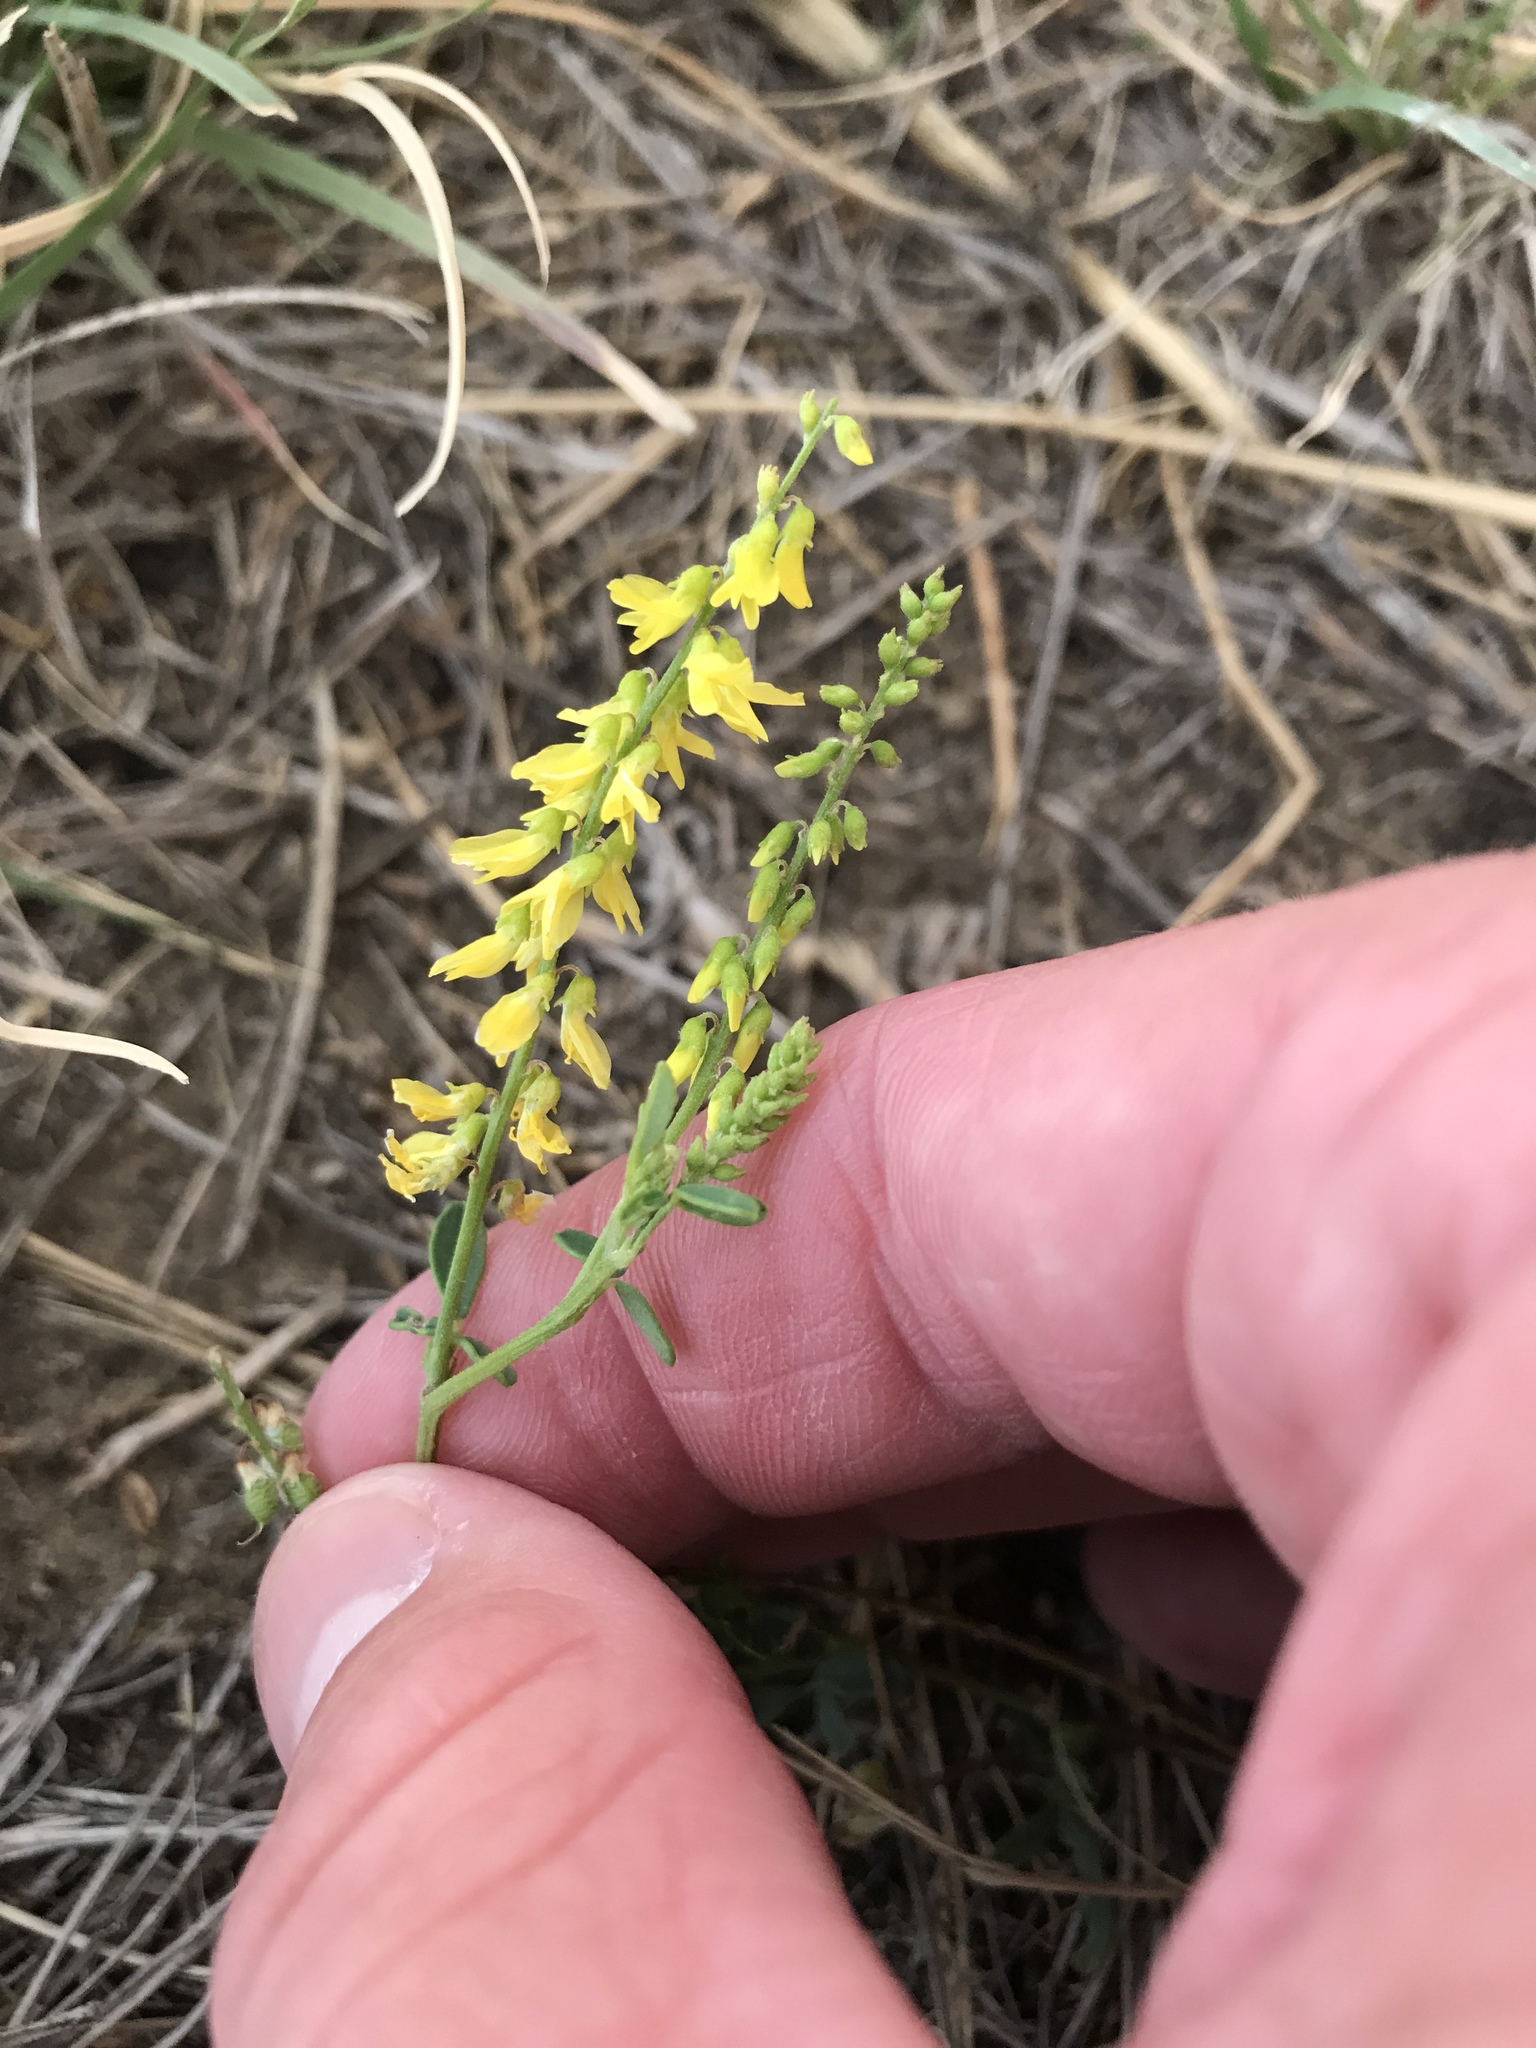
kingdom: Plantae
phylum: Tracheophyta
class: Magnoliopsida
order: Fabales
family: Fabaceae
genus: Melilotus
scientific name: Melilotus officinalis
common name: Sweetclover
